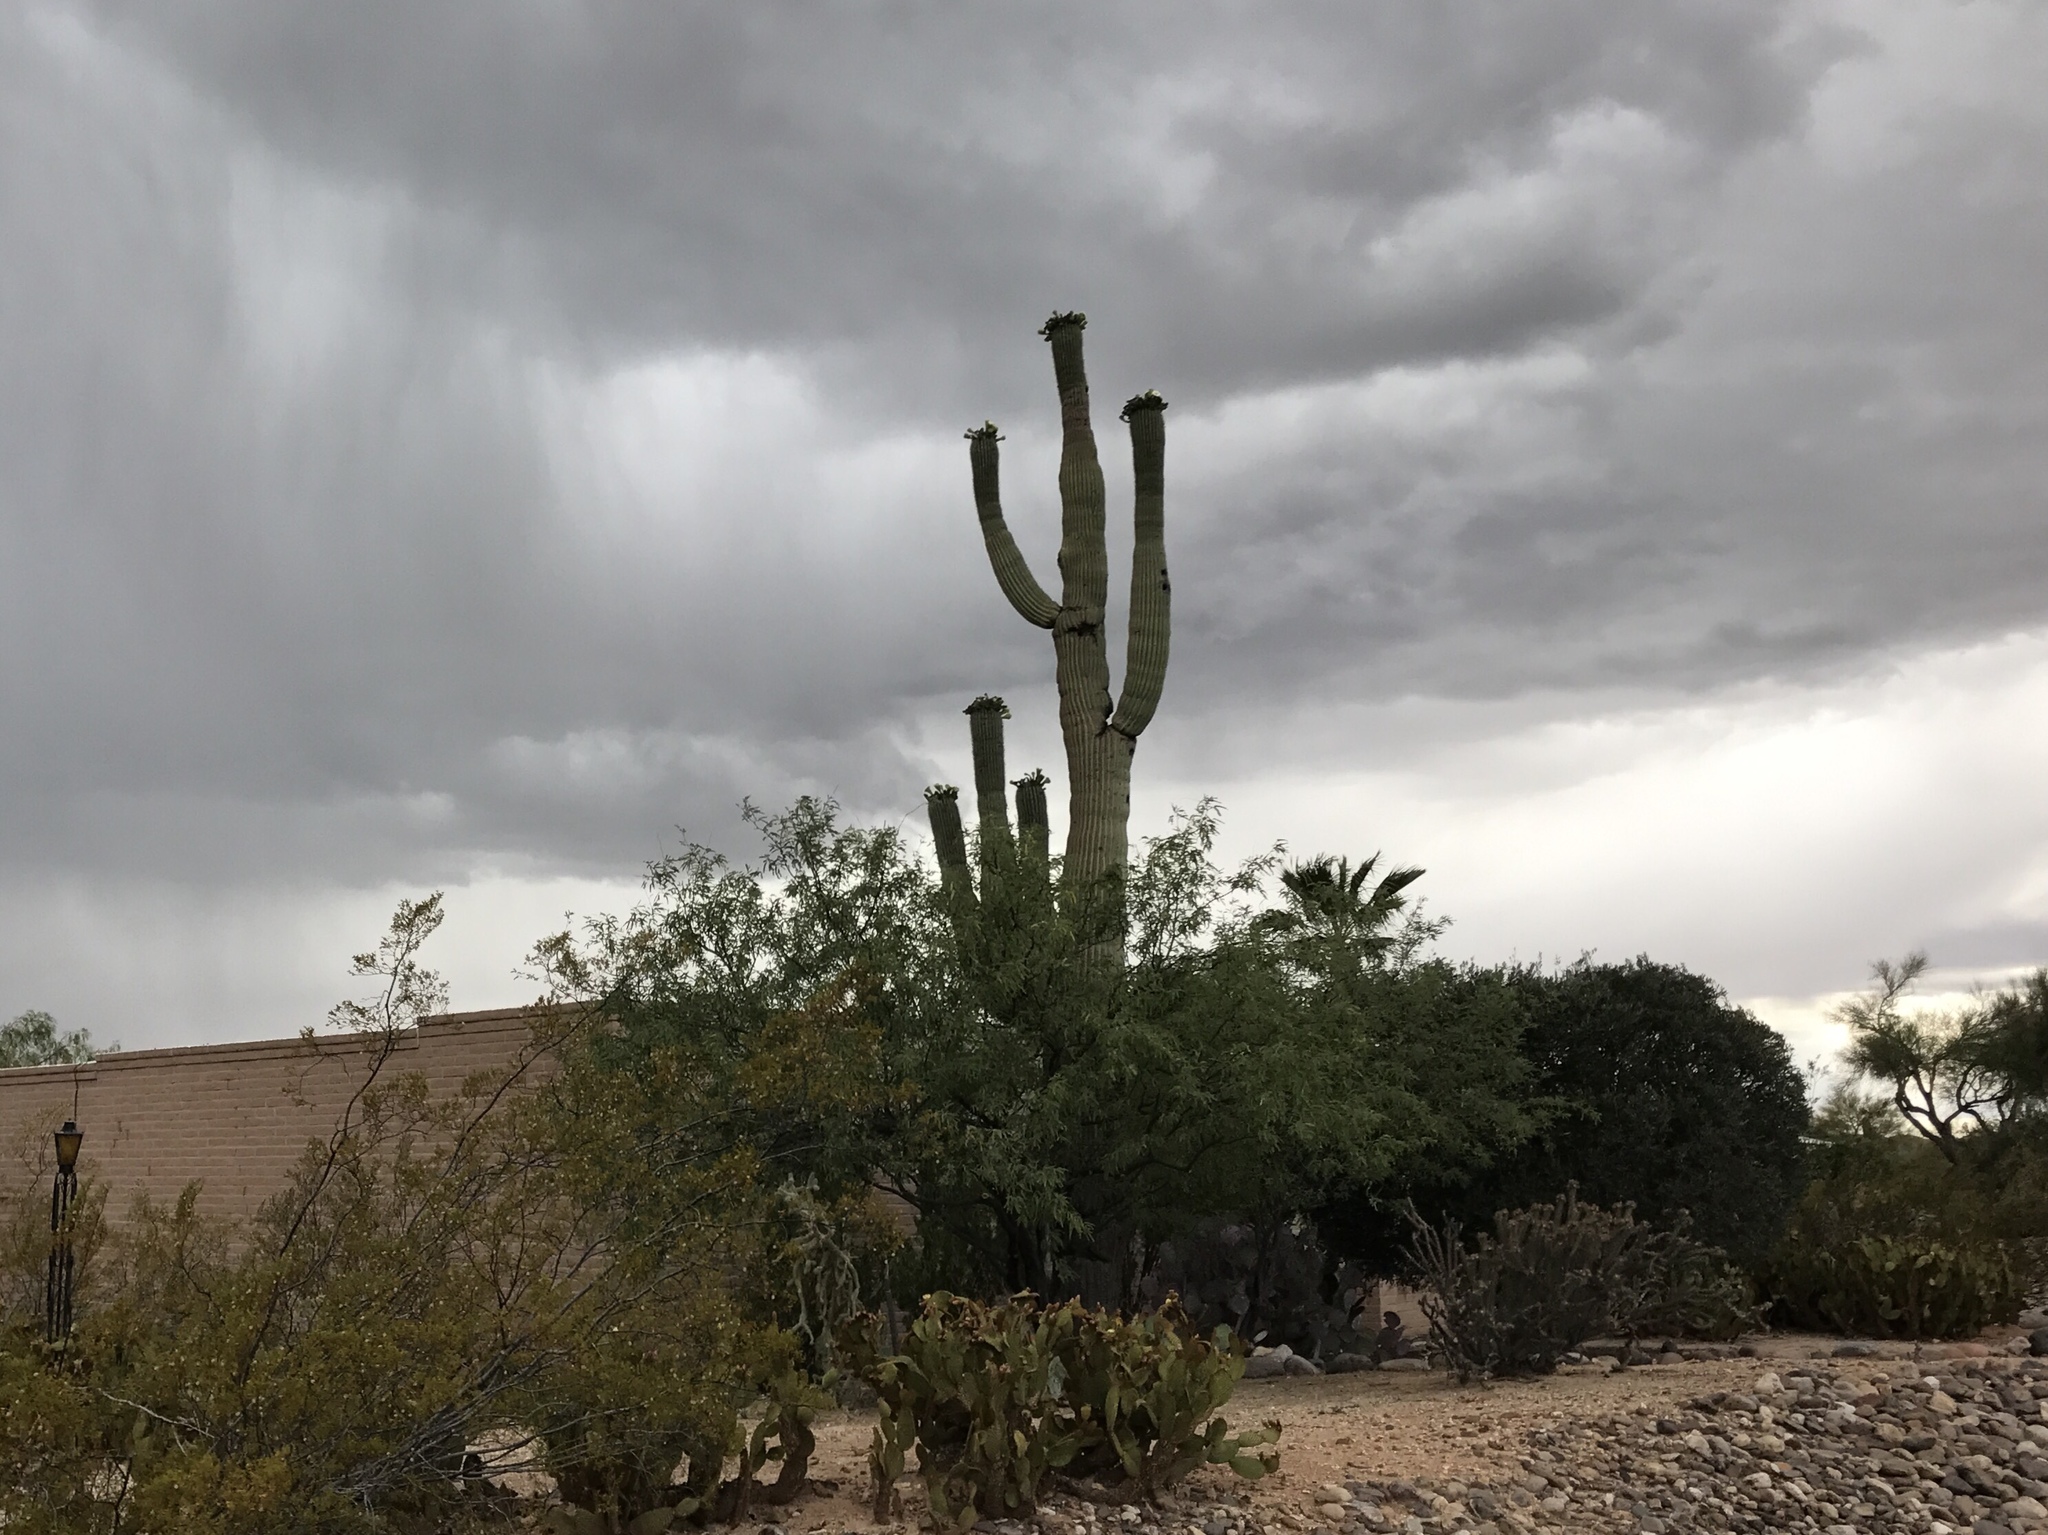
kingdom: Plantae
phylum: Tracheophyta
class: Magnoliopsida
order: Caryophyllales
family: Cactaceae
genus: Carnegiea
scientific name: Carnegiea gigantea
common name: Saguaro
